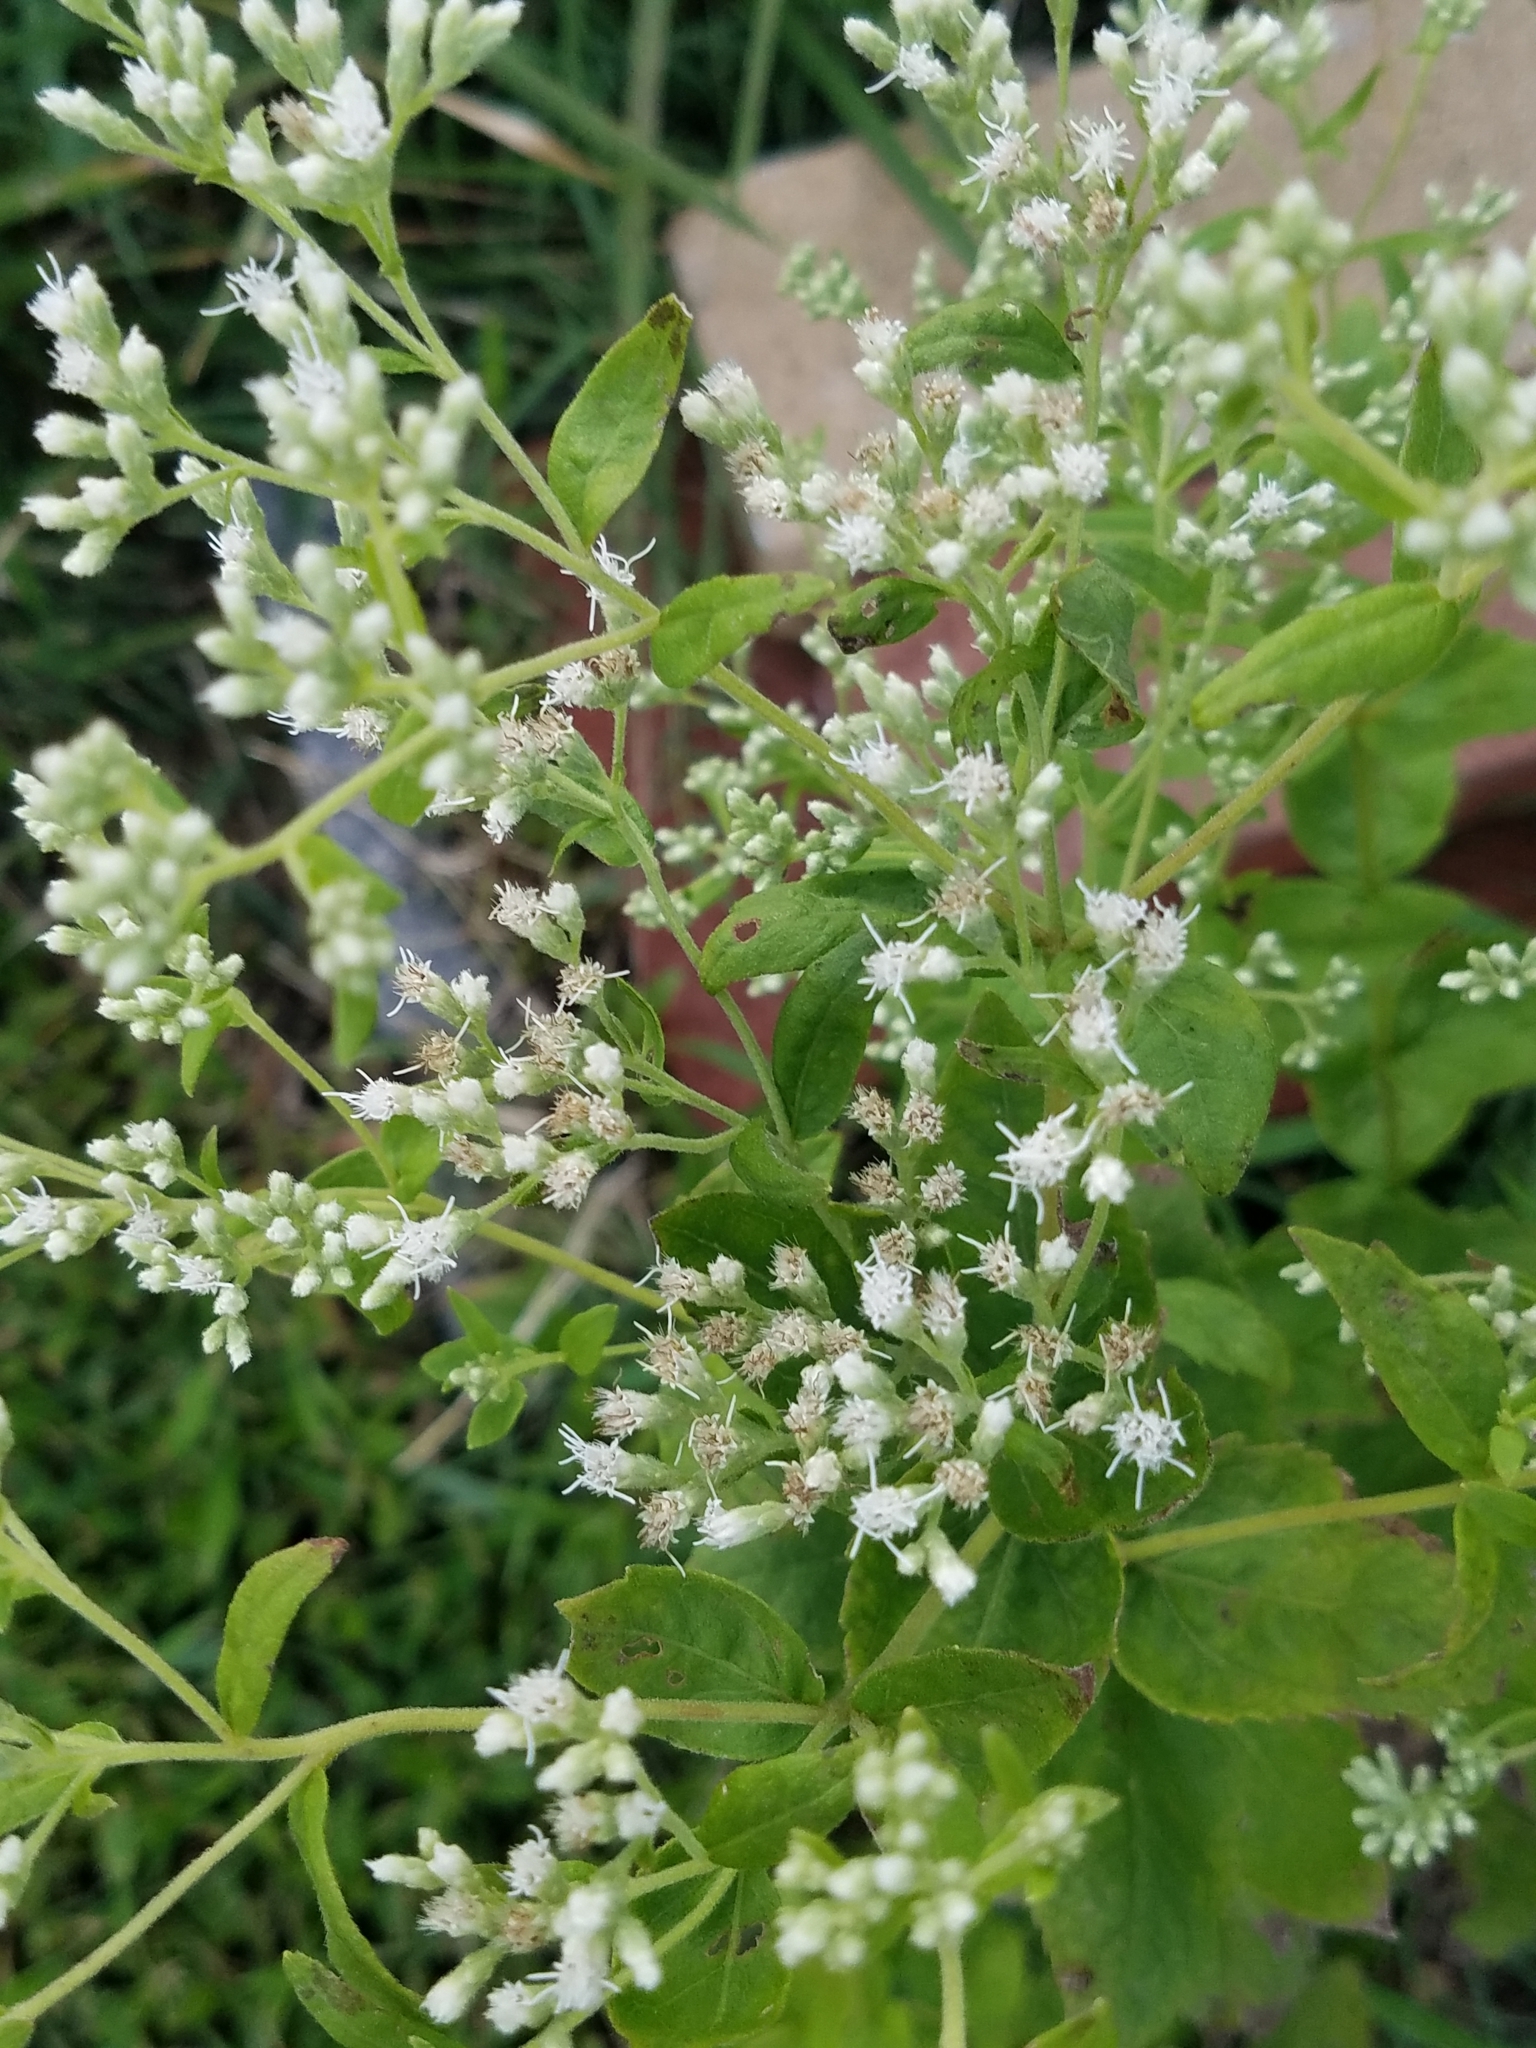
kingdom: Plantae
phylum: Tracheophyta
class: Magnoliopsida
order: Asterales
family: Asteraceae
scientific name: Asteraceae
